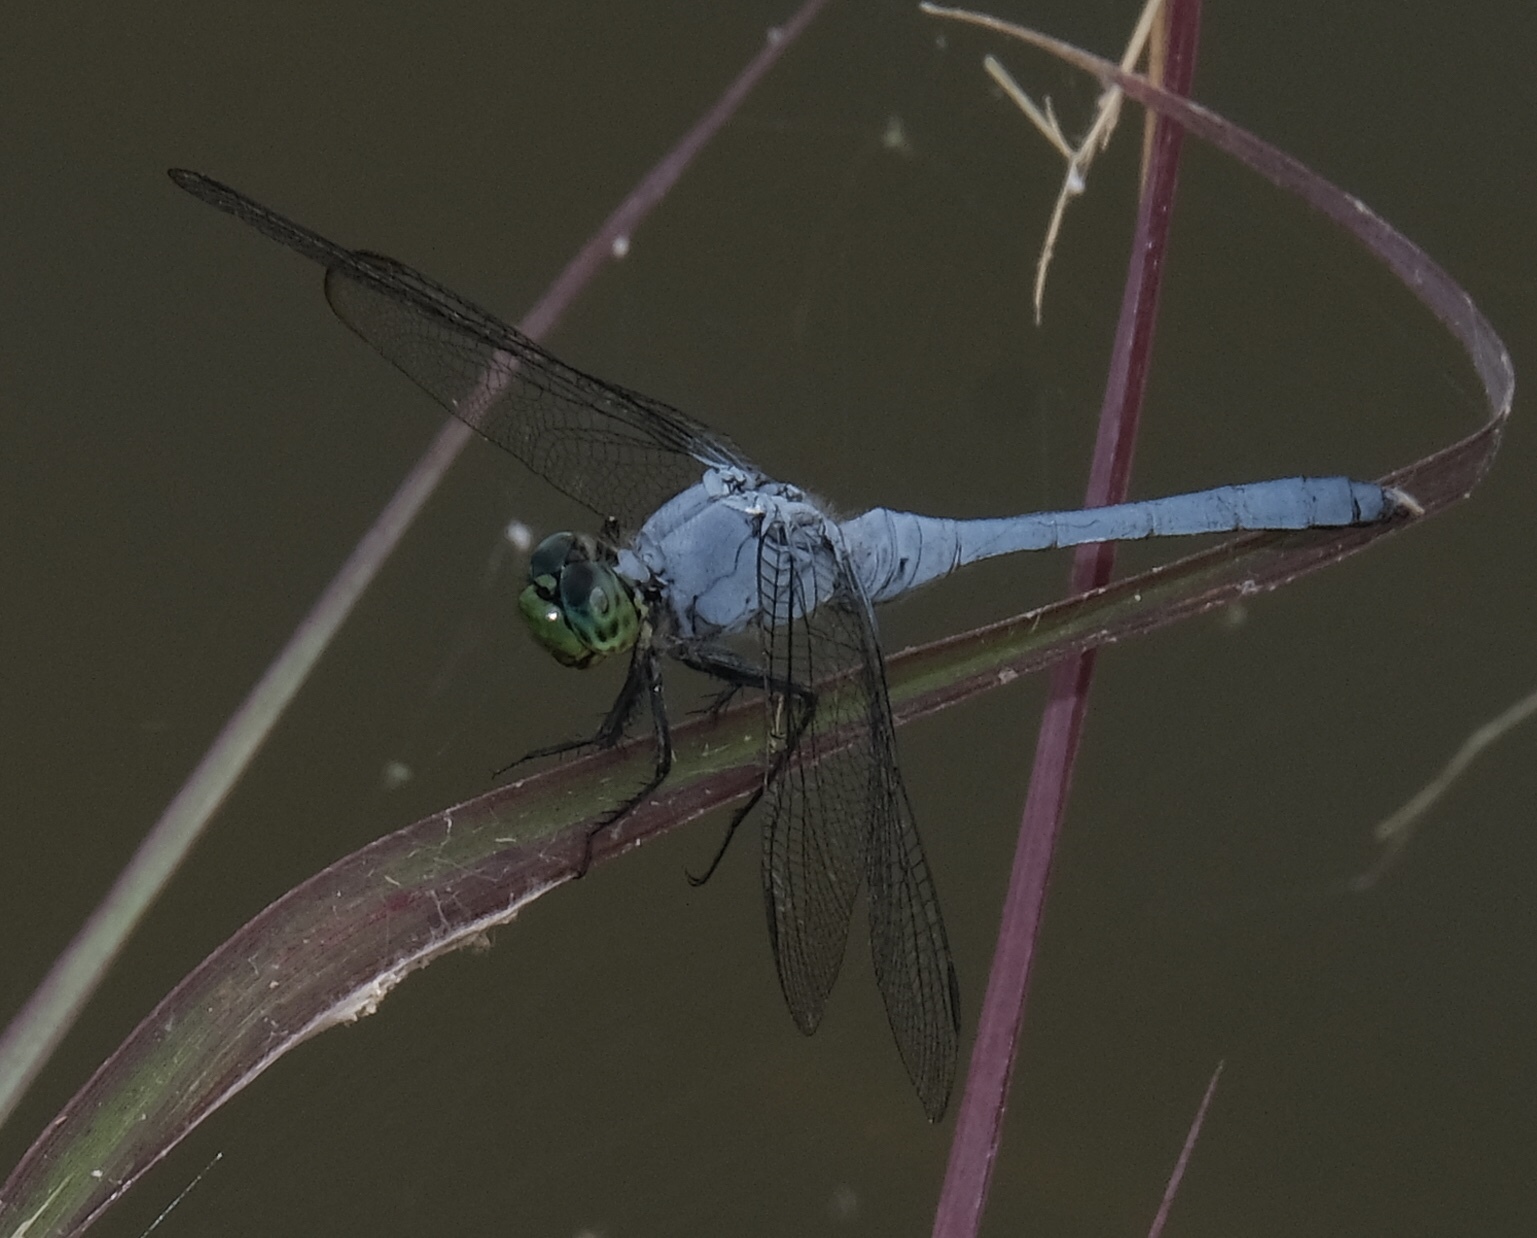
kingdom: Animalia
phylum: Arthropoda
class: Insecta
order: Odonata
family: Libellulidae
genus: Erythemis
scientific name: Erythemis simplicicollis
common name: Eastern pondhawk
